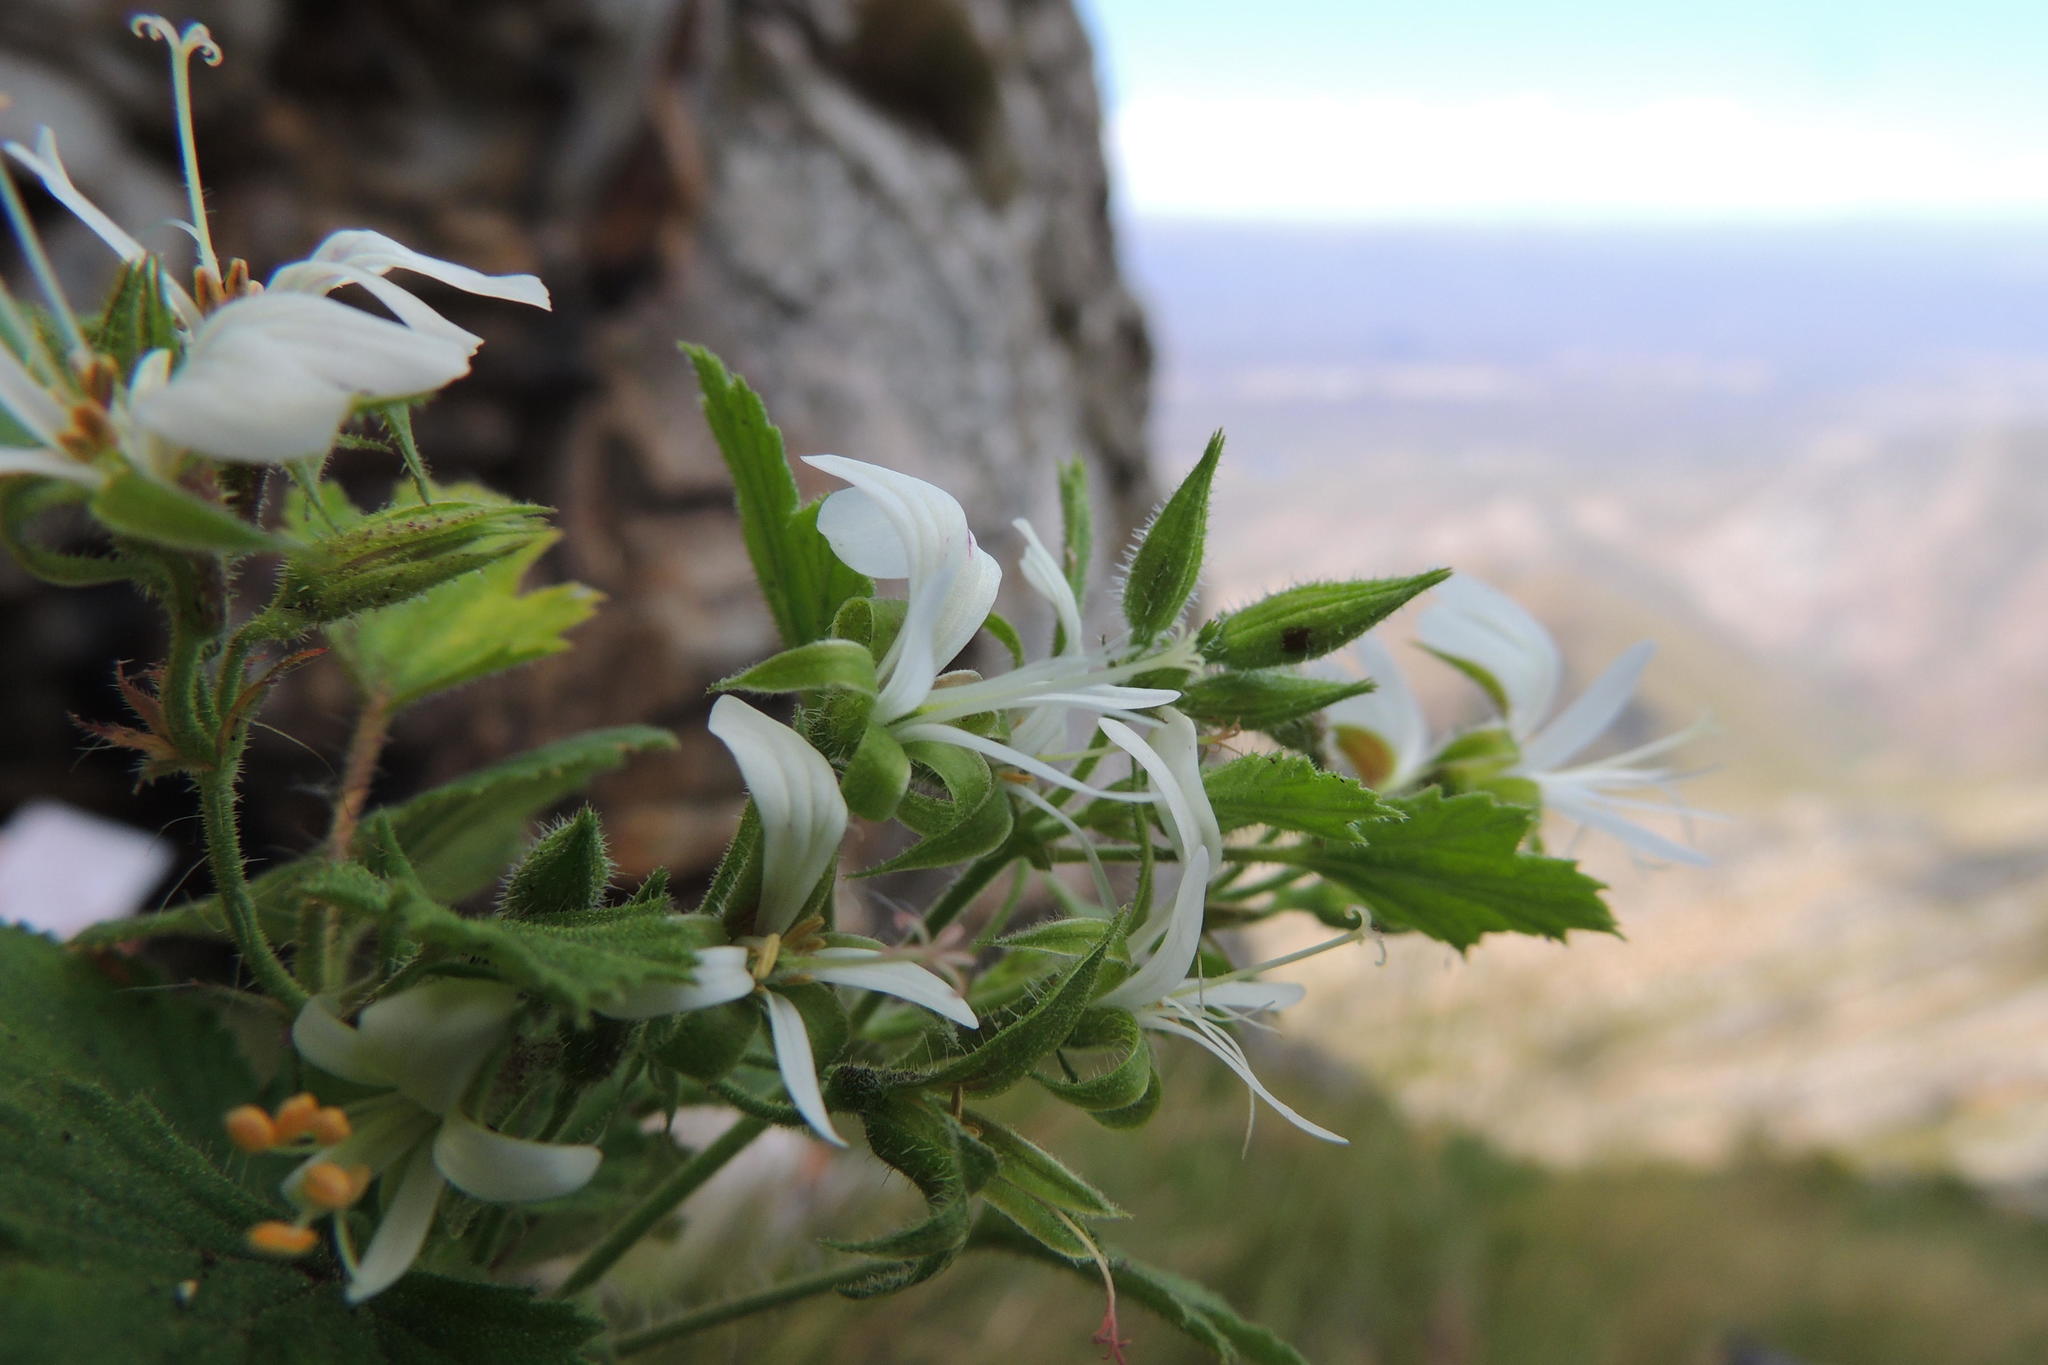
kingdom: Plantae
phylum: Tracheophyta
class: Magnoliopsida
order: Geraniales
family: Geraniaceae
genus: Pelargonium
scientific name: Pelargonium ribifolium
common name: Currant-leaf pelargonium
